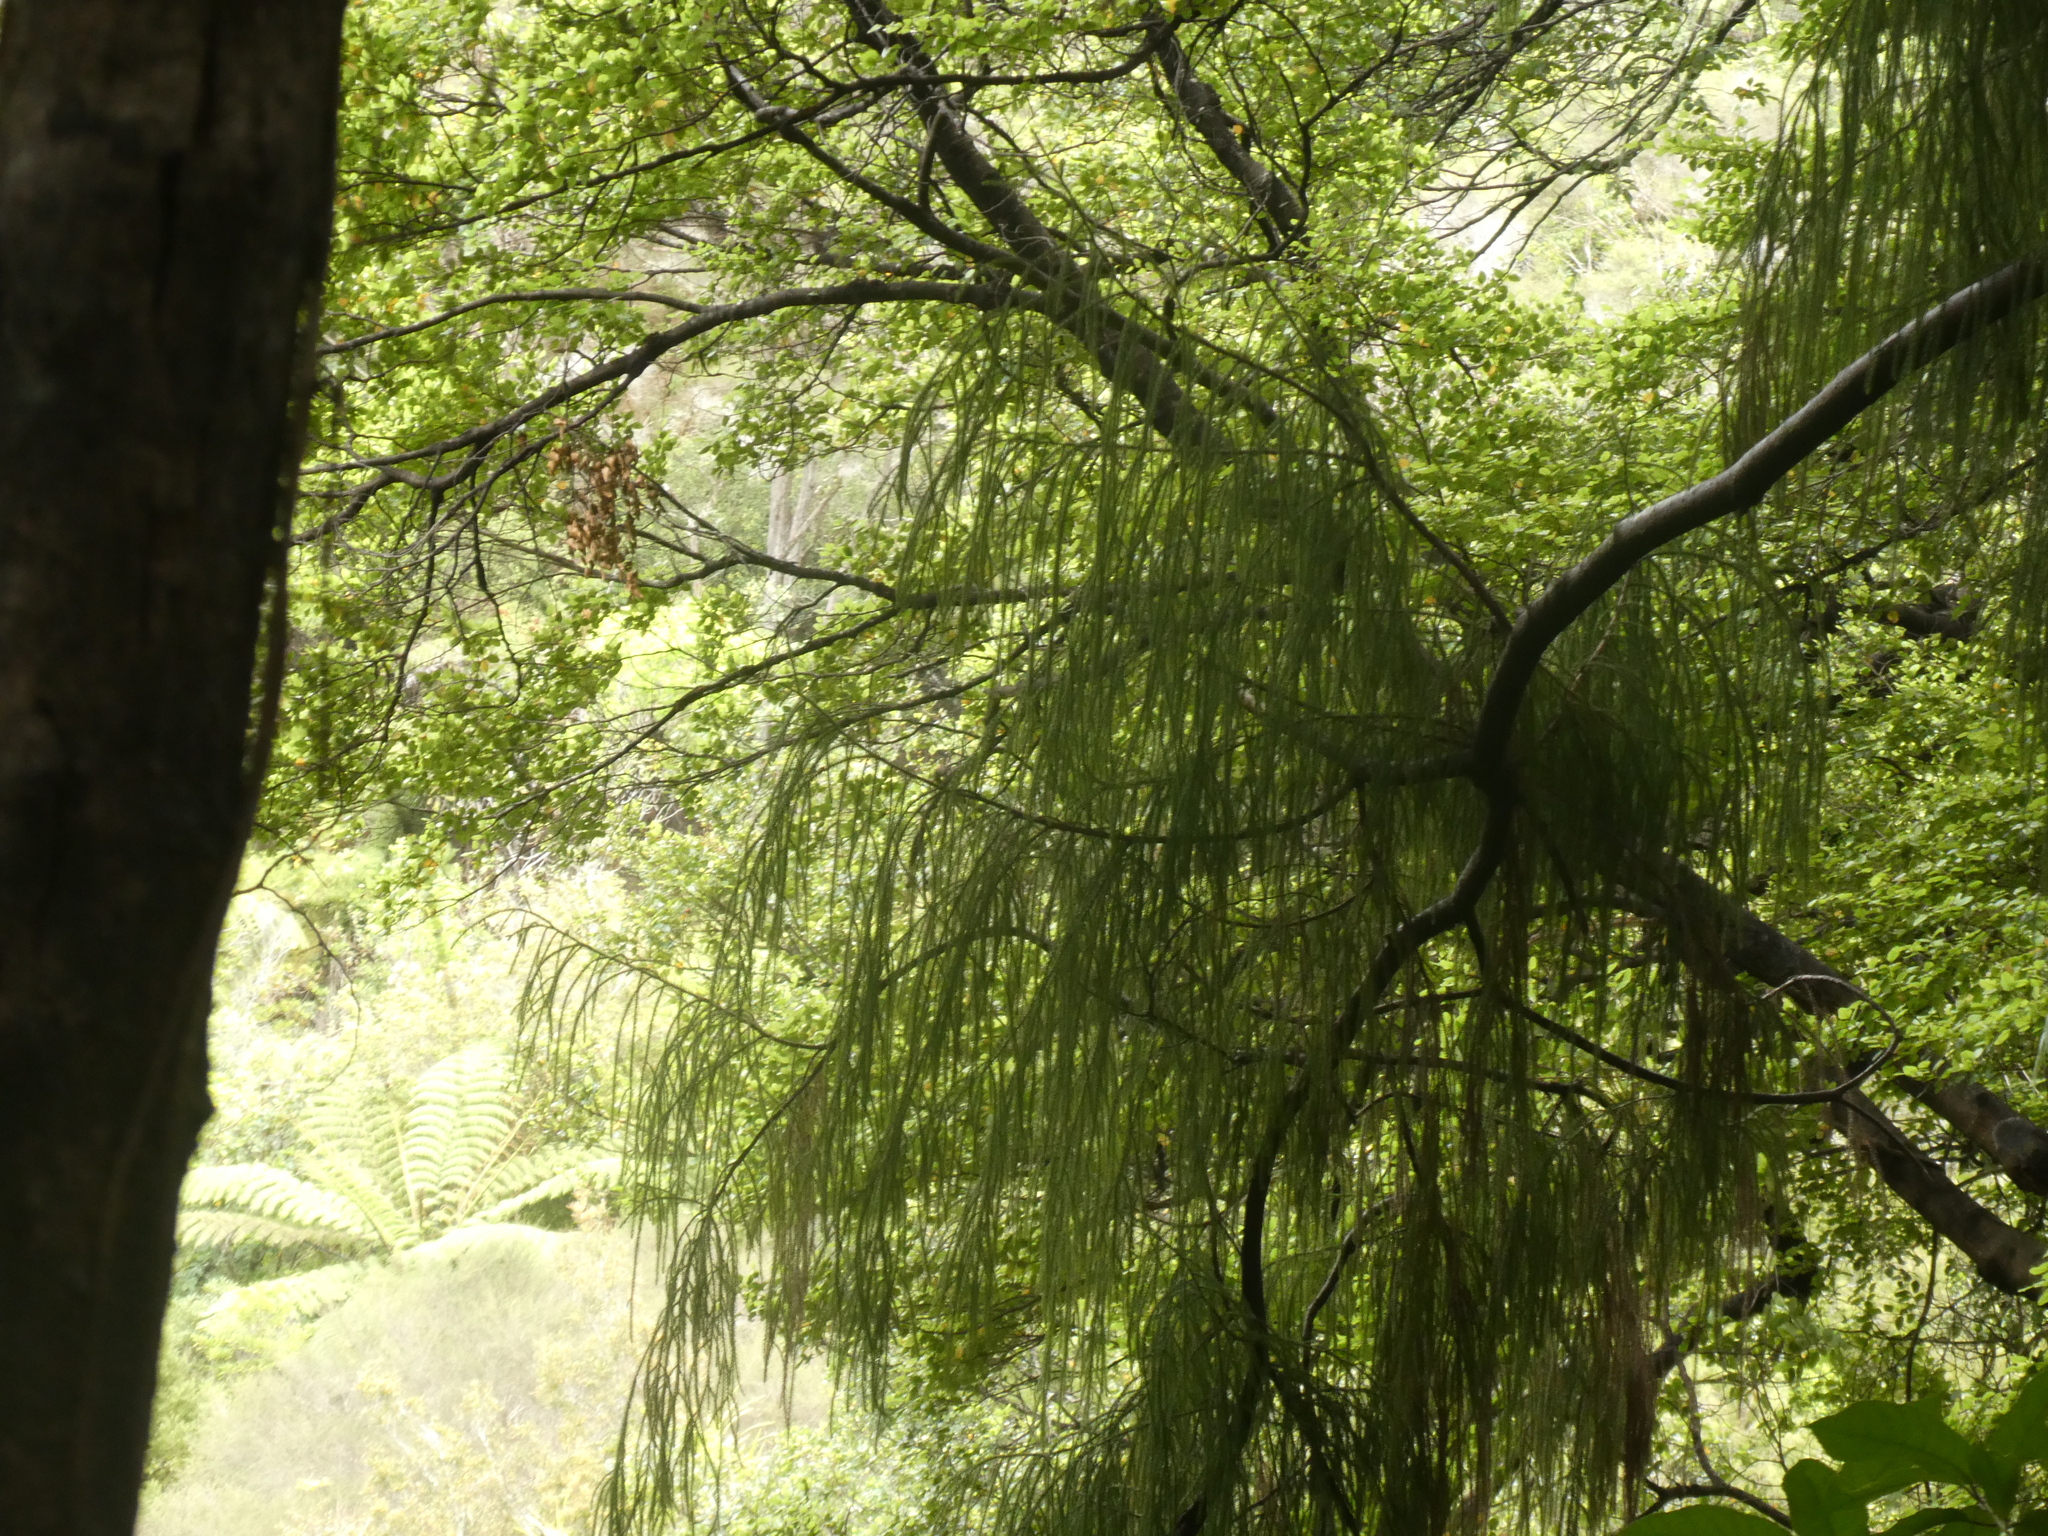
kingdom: Plantae
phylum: Tracheophyta
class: Pinopsida
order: Pinales
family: Podocarpaceae
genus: Dacrydium
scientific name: Dacrydium cupressinum
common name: Red pine
